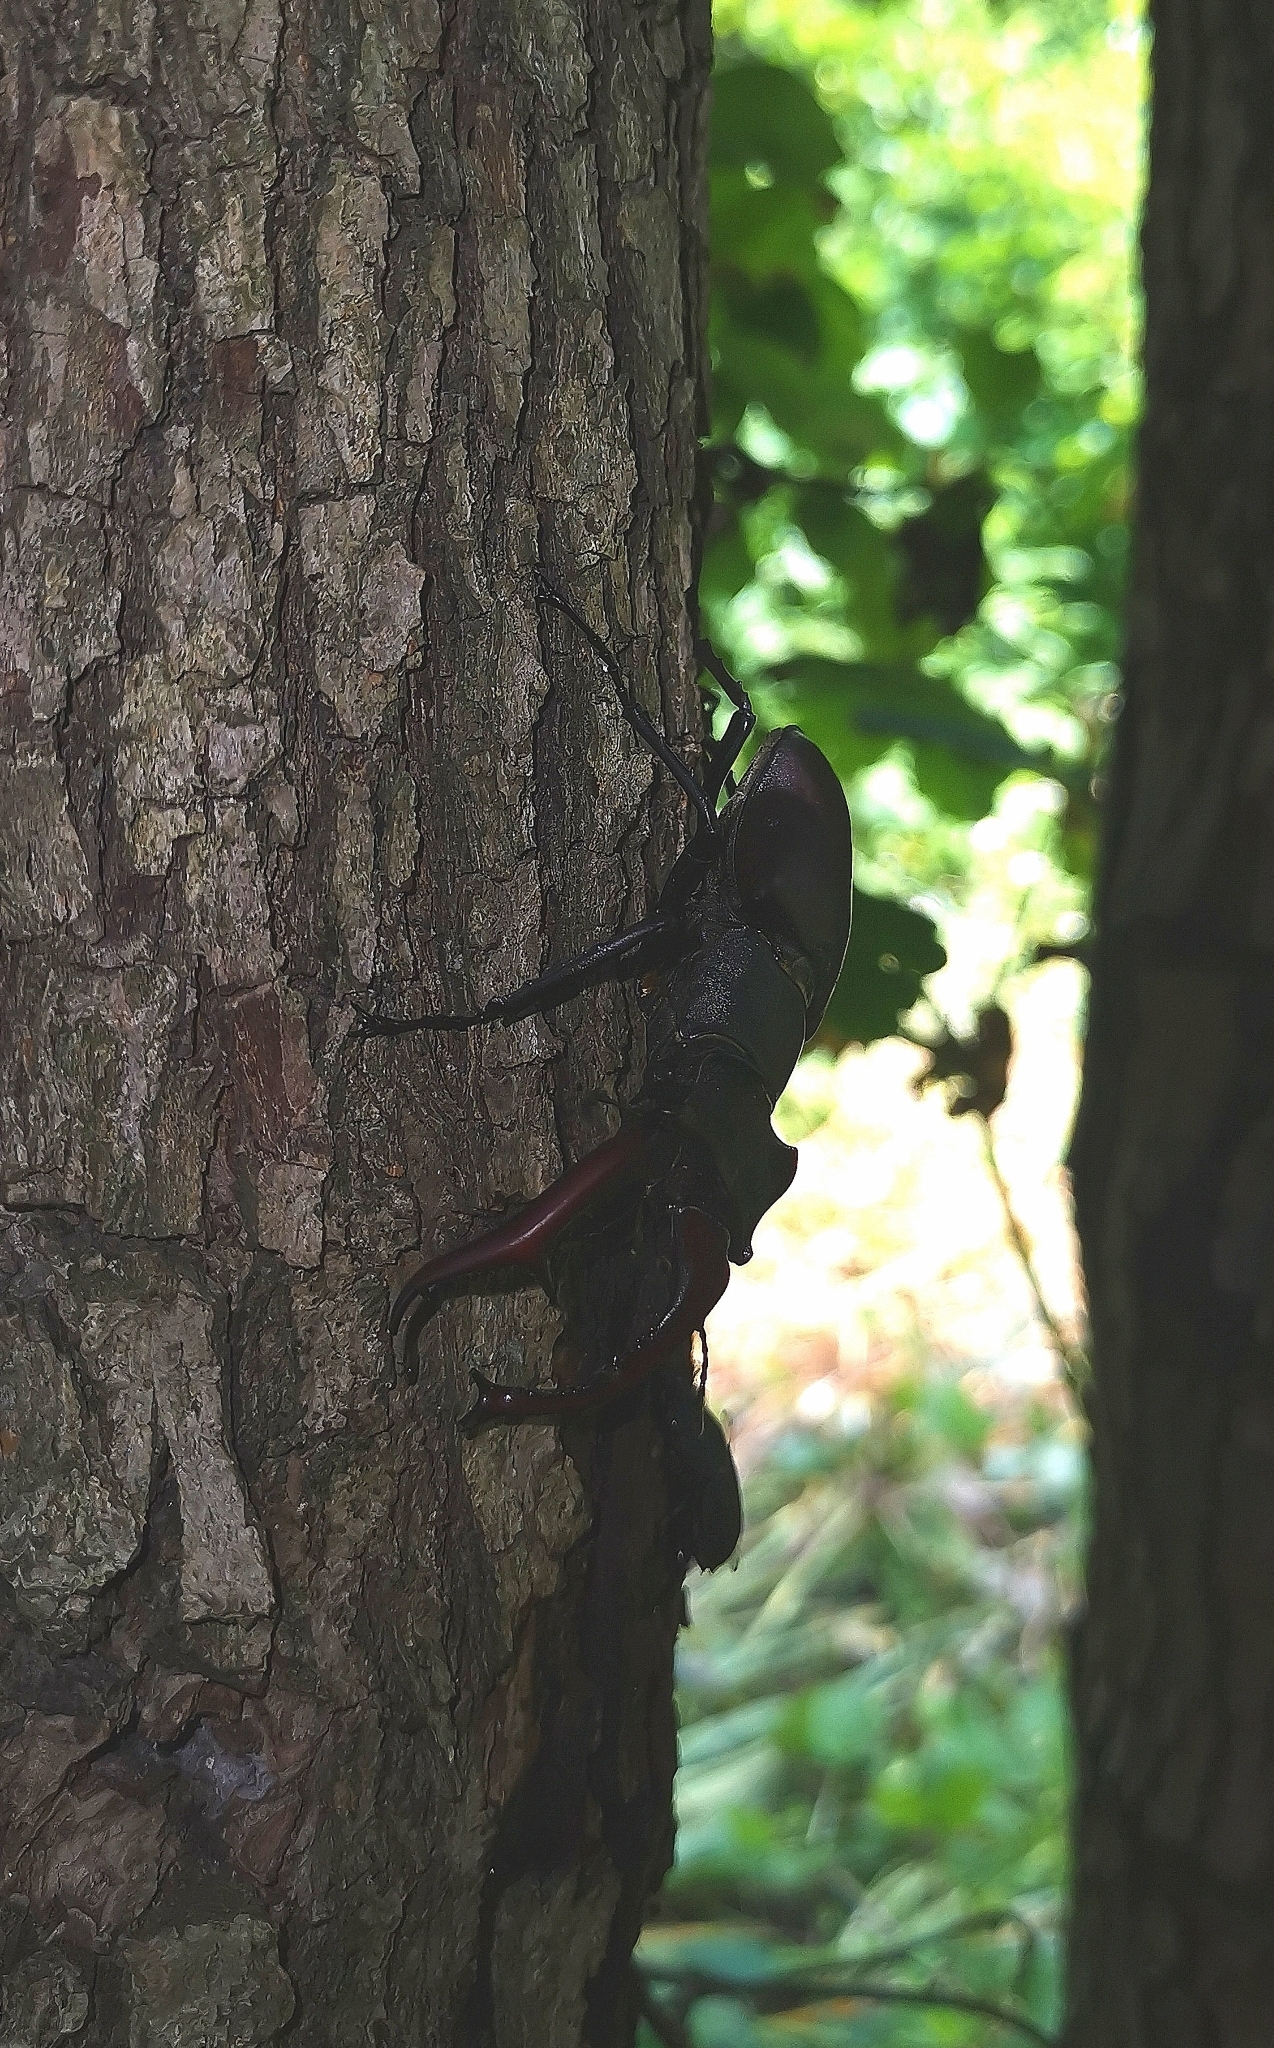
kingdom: Animalia
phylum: Arthropoda
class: Insecta
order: Coleoptera
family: Lucanidae
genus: Lucanus
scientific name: Lucanus cervus
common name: Stag beetle
